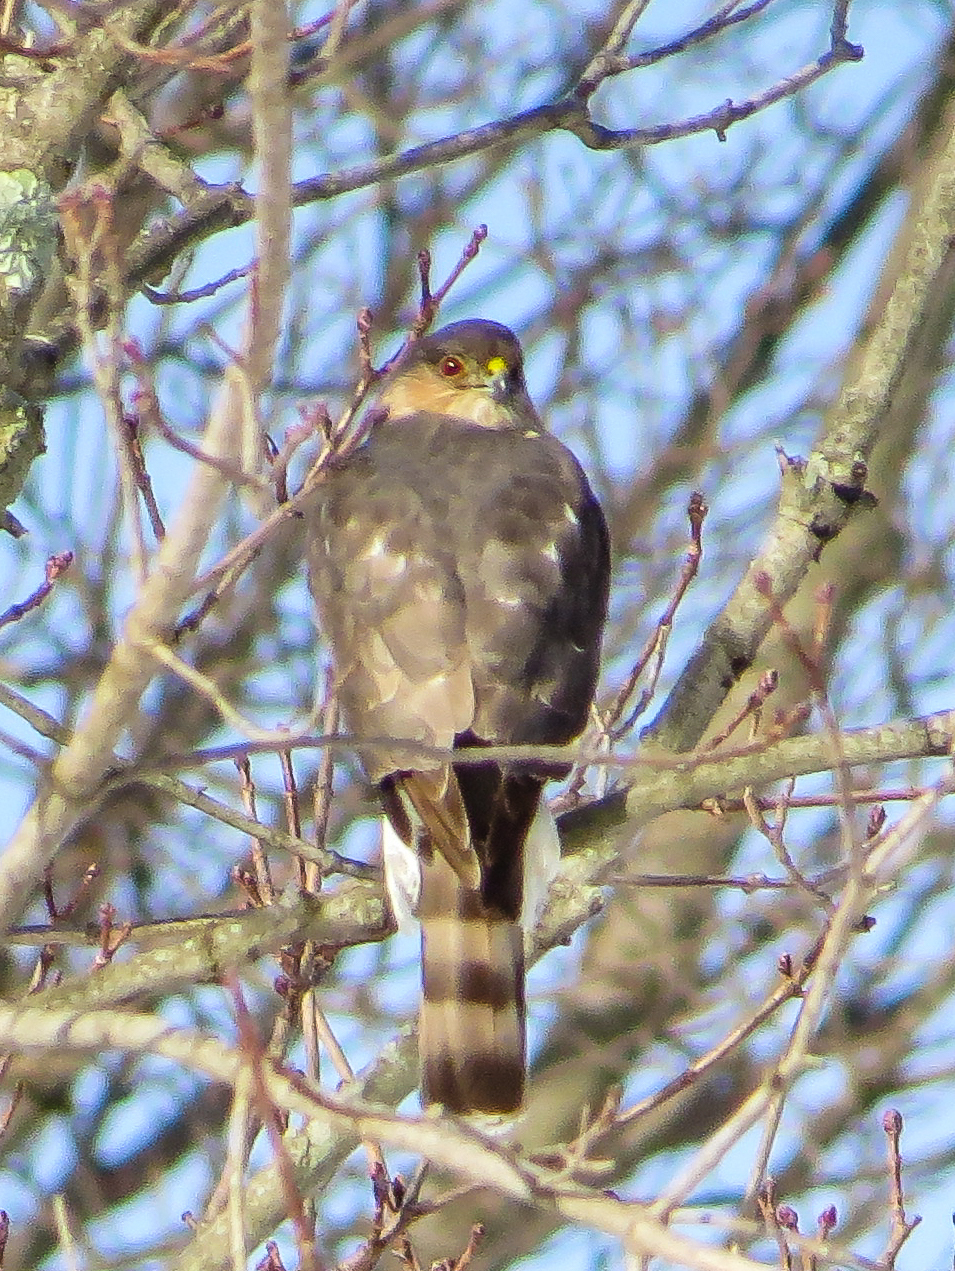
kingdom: Animalia
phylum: Chordata
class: Aves
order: Accipitriformes
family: Accipitridae
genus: Accipiter
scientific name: Accipiter cooperii
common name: Cooper's hawk
